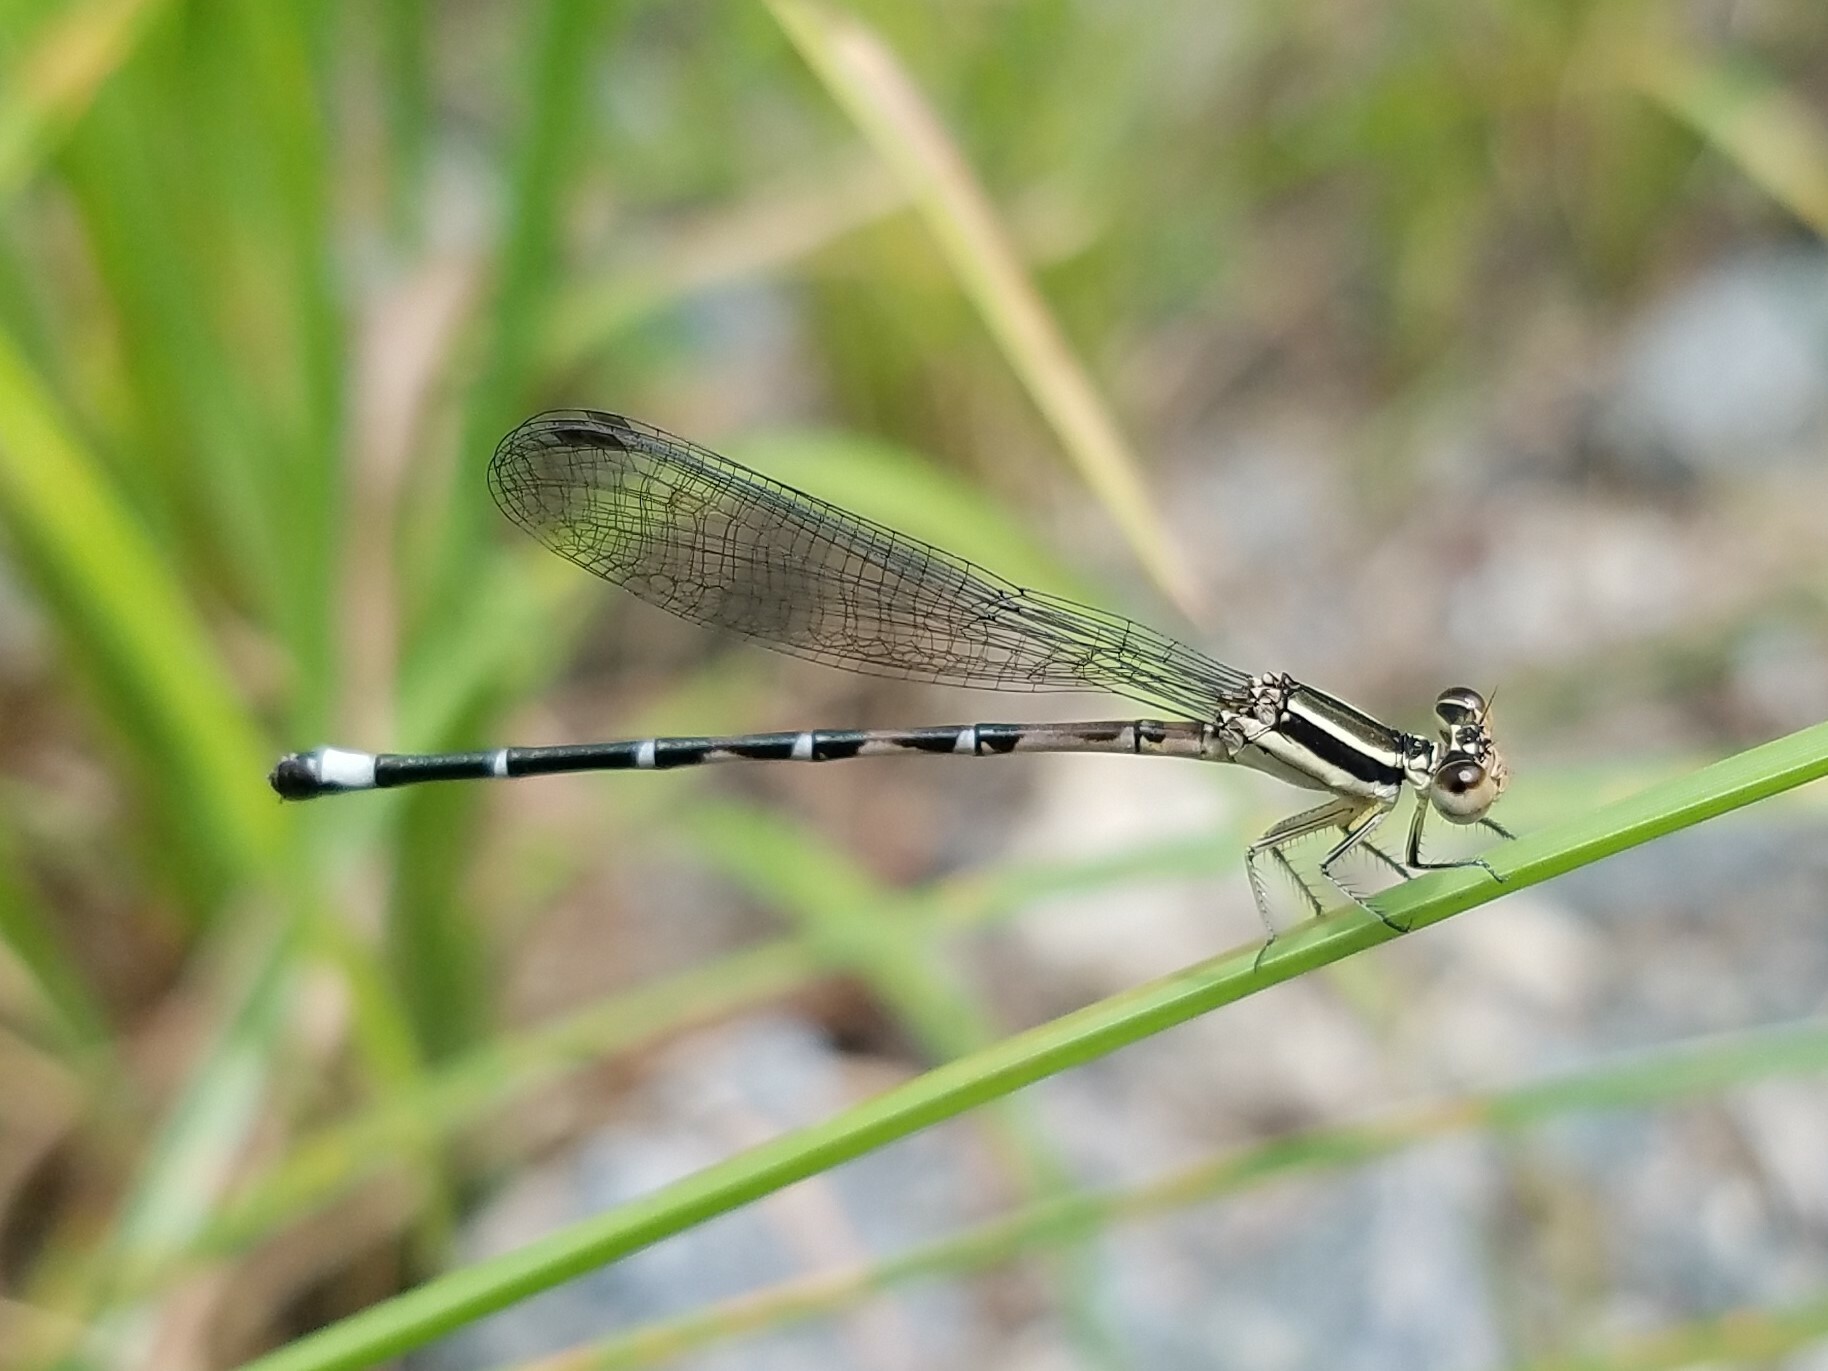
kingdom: Animalia
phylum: Arthropoda
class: Insecta
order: Odonata
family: Coenagrionidae
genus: Argia
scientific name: Argia bipunctulata
